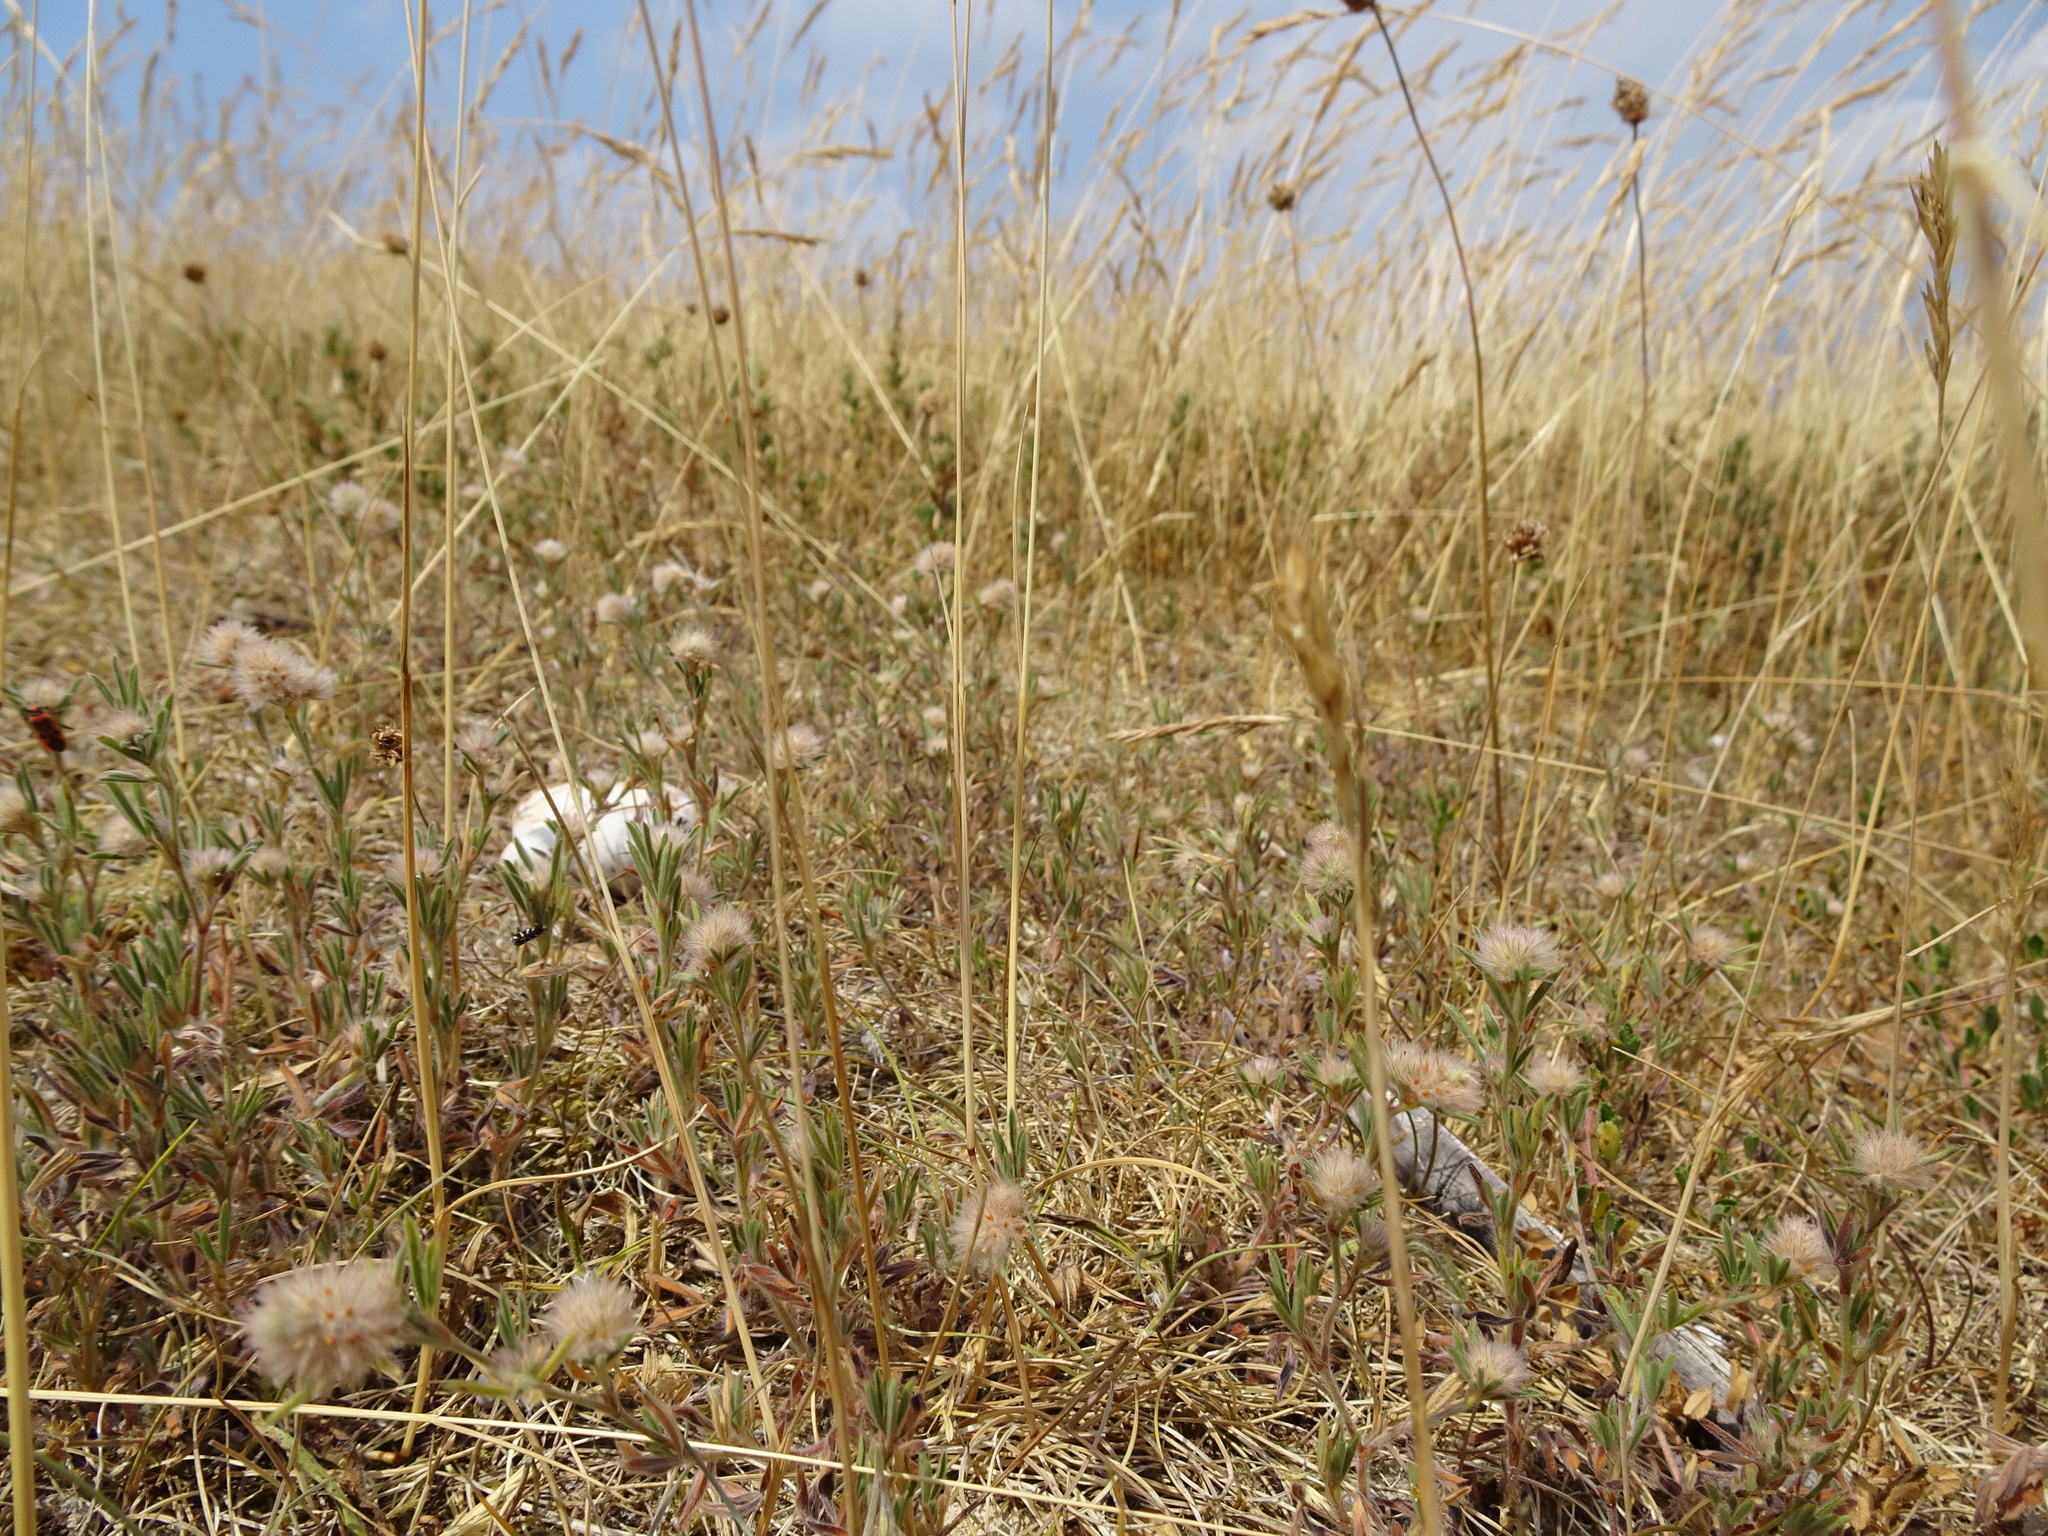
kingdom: Plantae
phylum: Tracheophyta
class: Magnoliopsida
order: Fabales
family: Fabaceae
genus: Trifolium
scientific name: Trifolium arvense
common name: Hare's-foot clover
